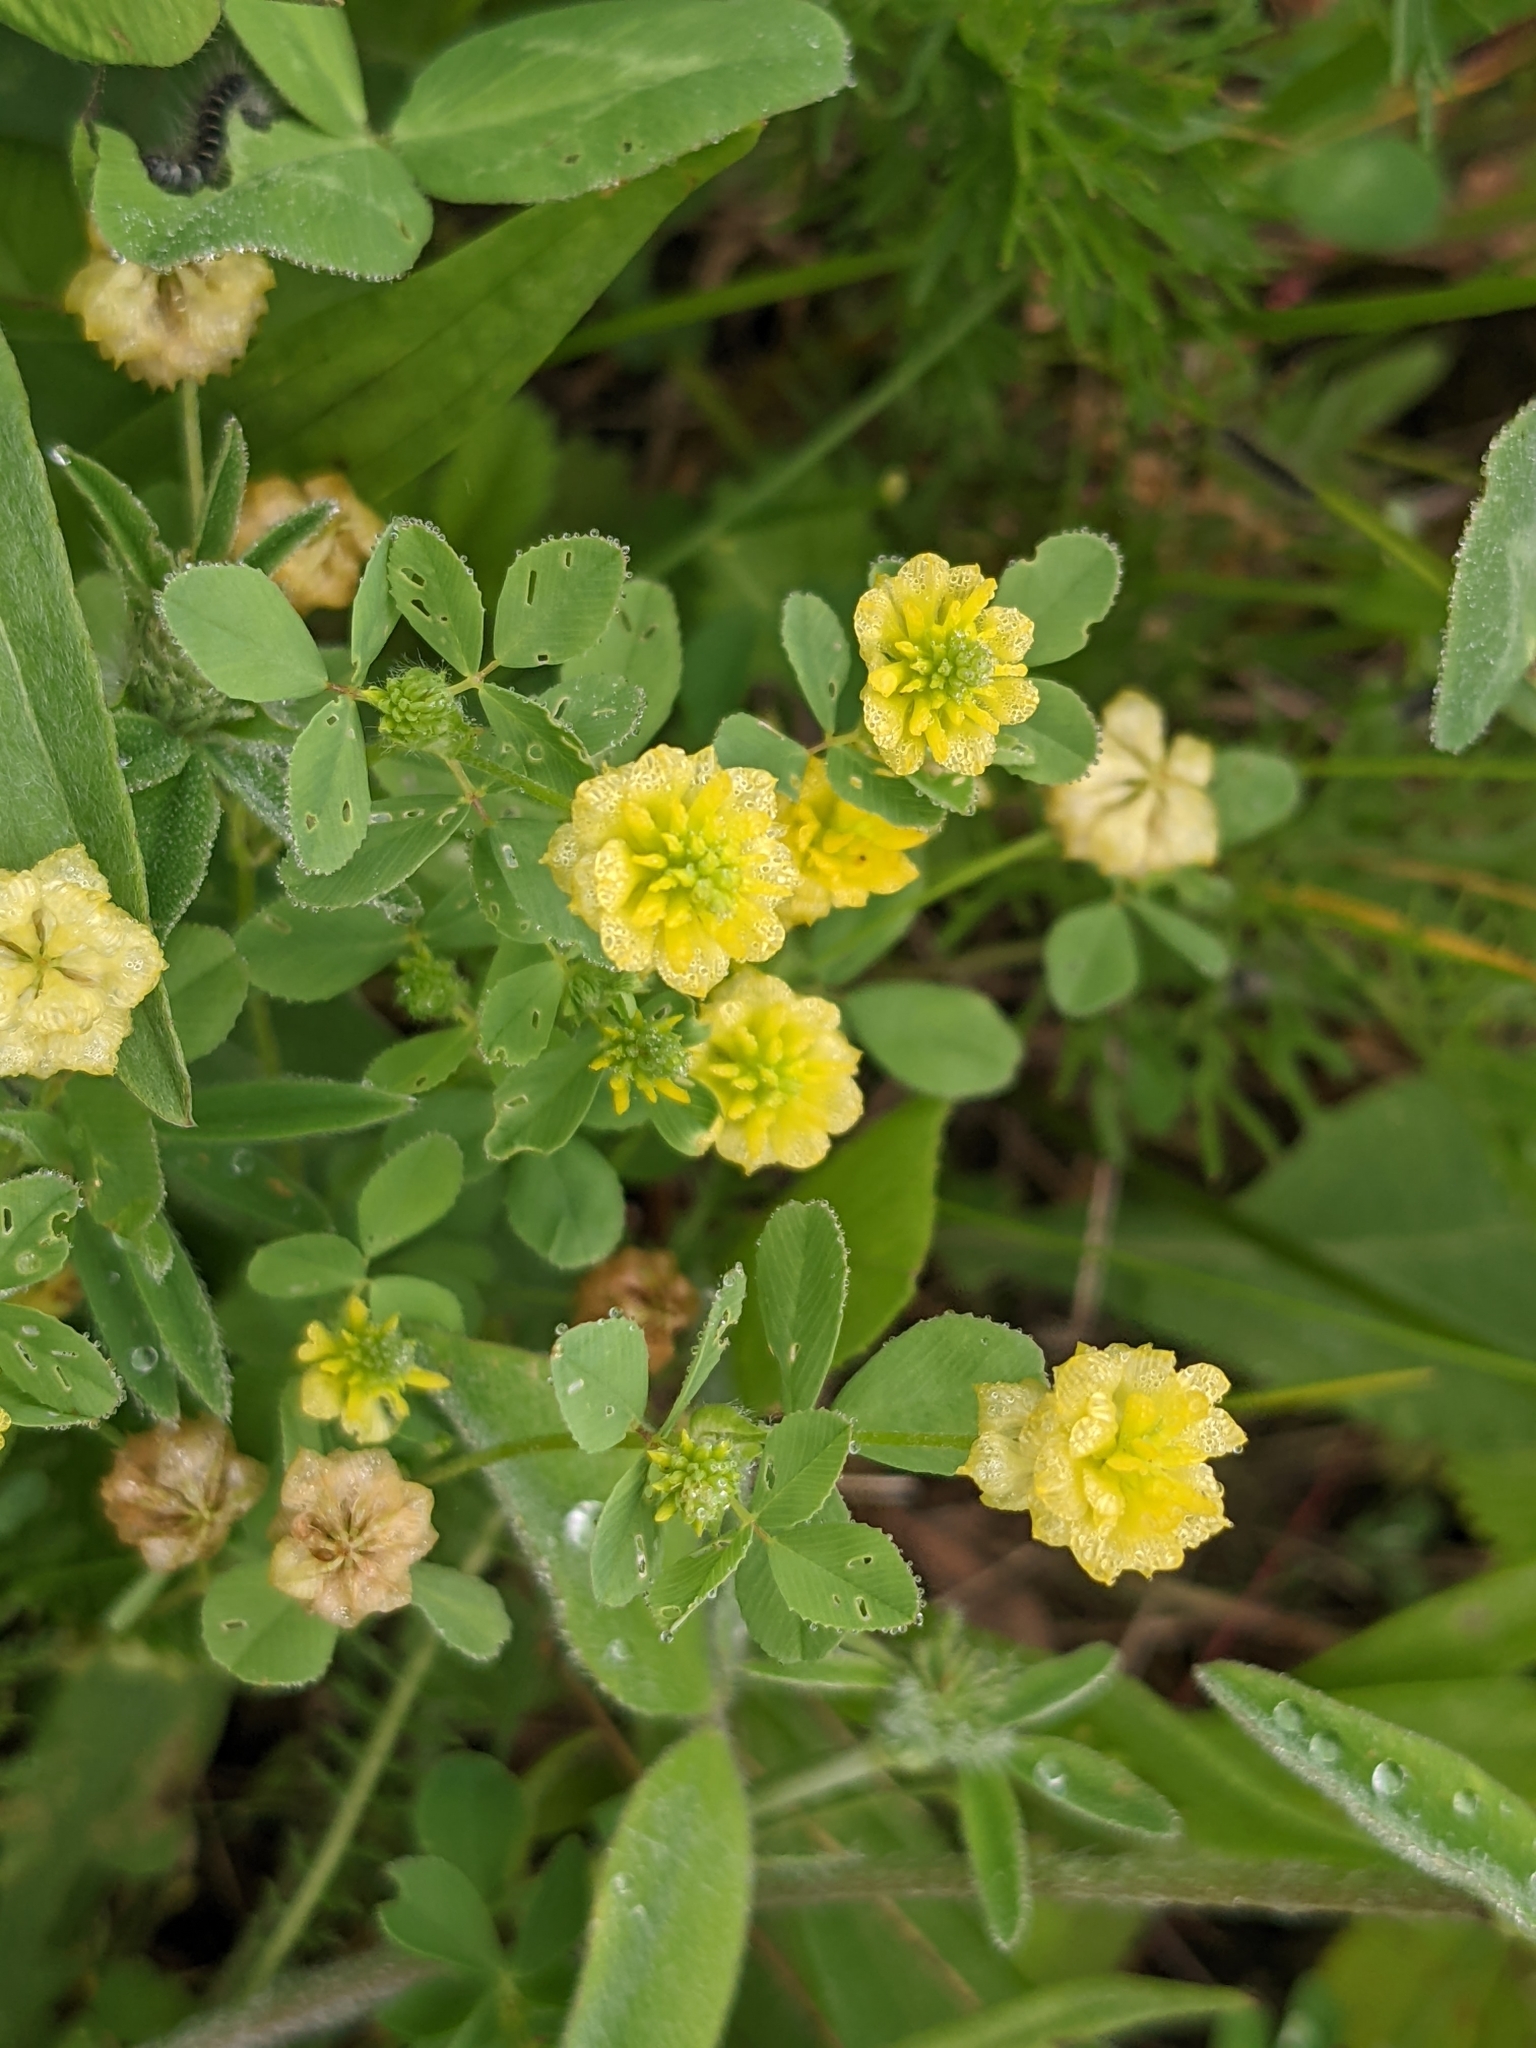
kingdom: Plantae
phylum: Tracheophyta
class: Magnoliopsida
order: Fabales
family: Fabaceae
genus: Trifolium
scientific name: Trifolium campestre
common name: Field clover
